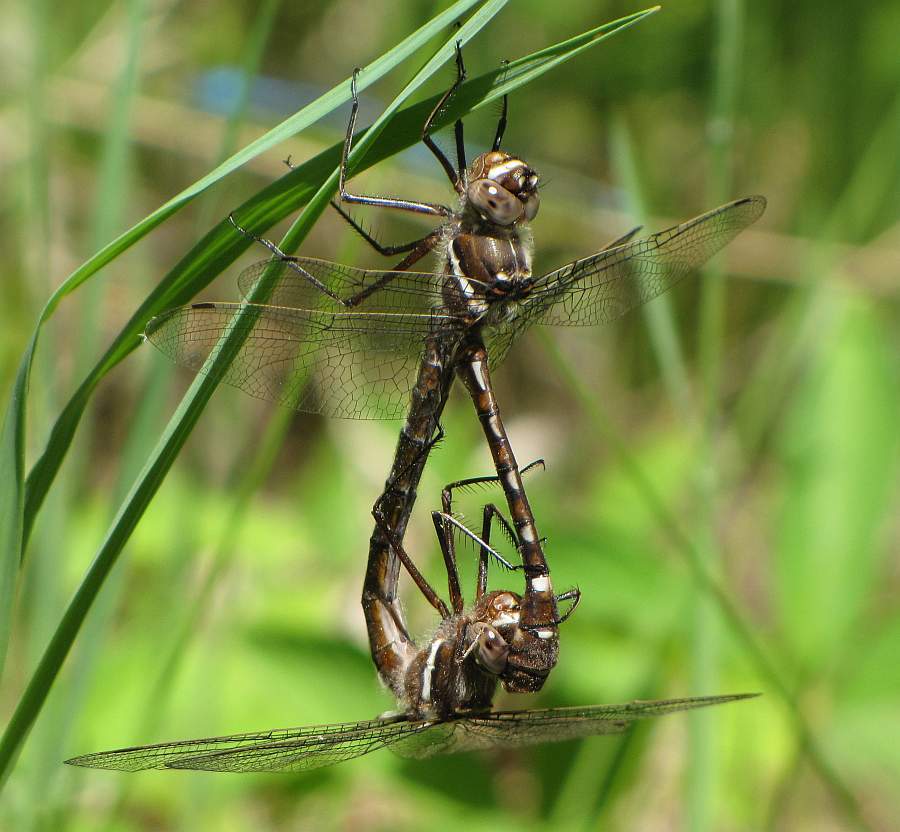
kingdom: Animalia
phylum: Arthropoda
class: Insecta
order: Odonata
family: Macromiidae
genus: Didymops
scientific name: Didymops transversa
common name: Stream cruiser
